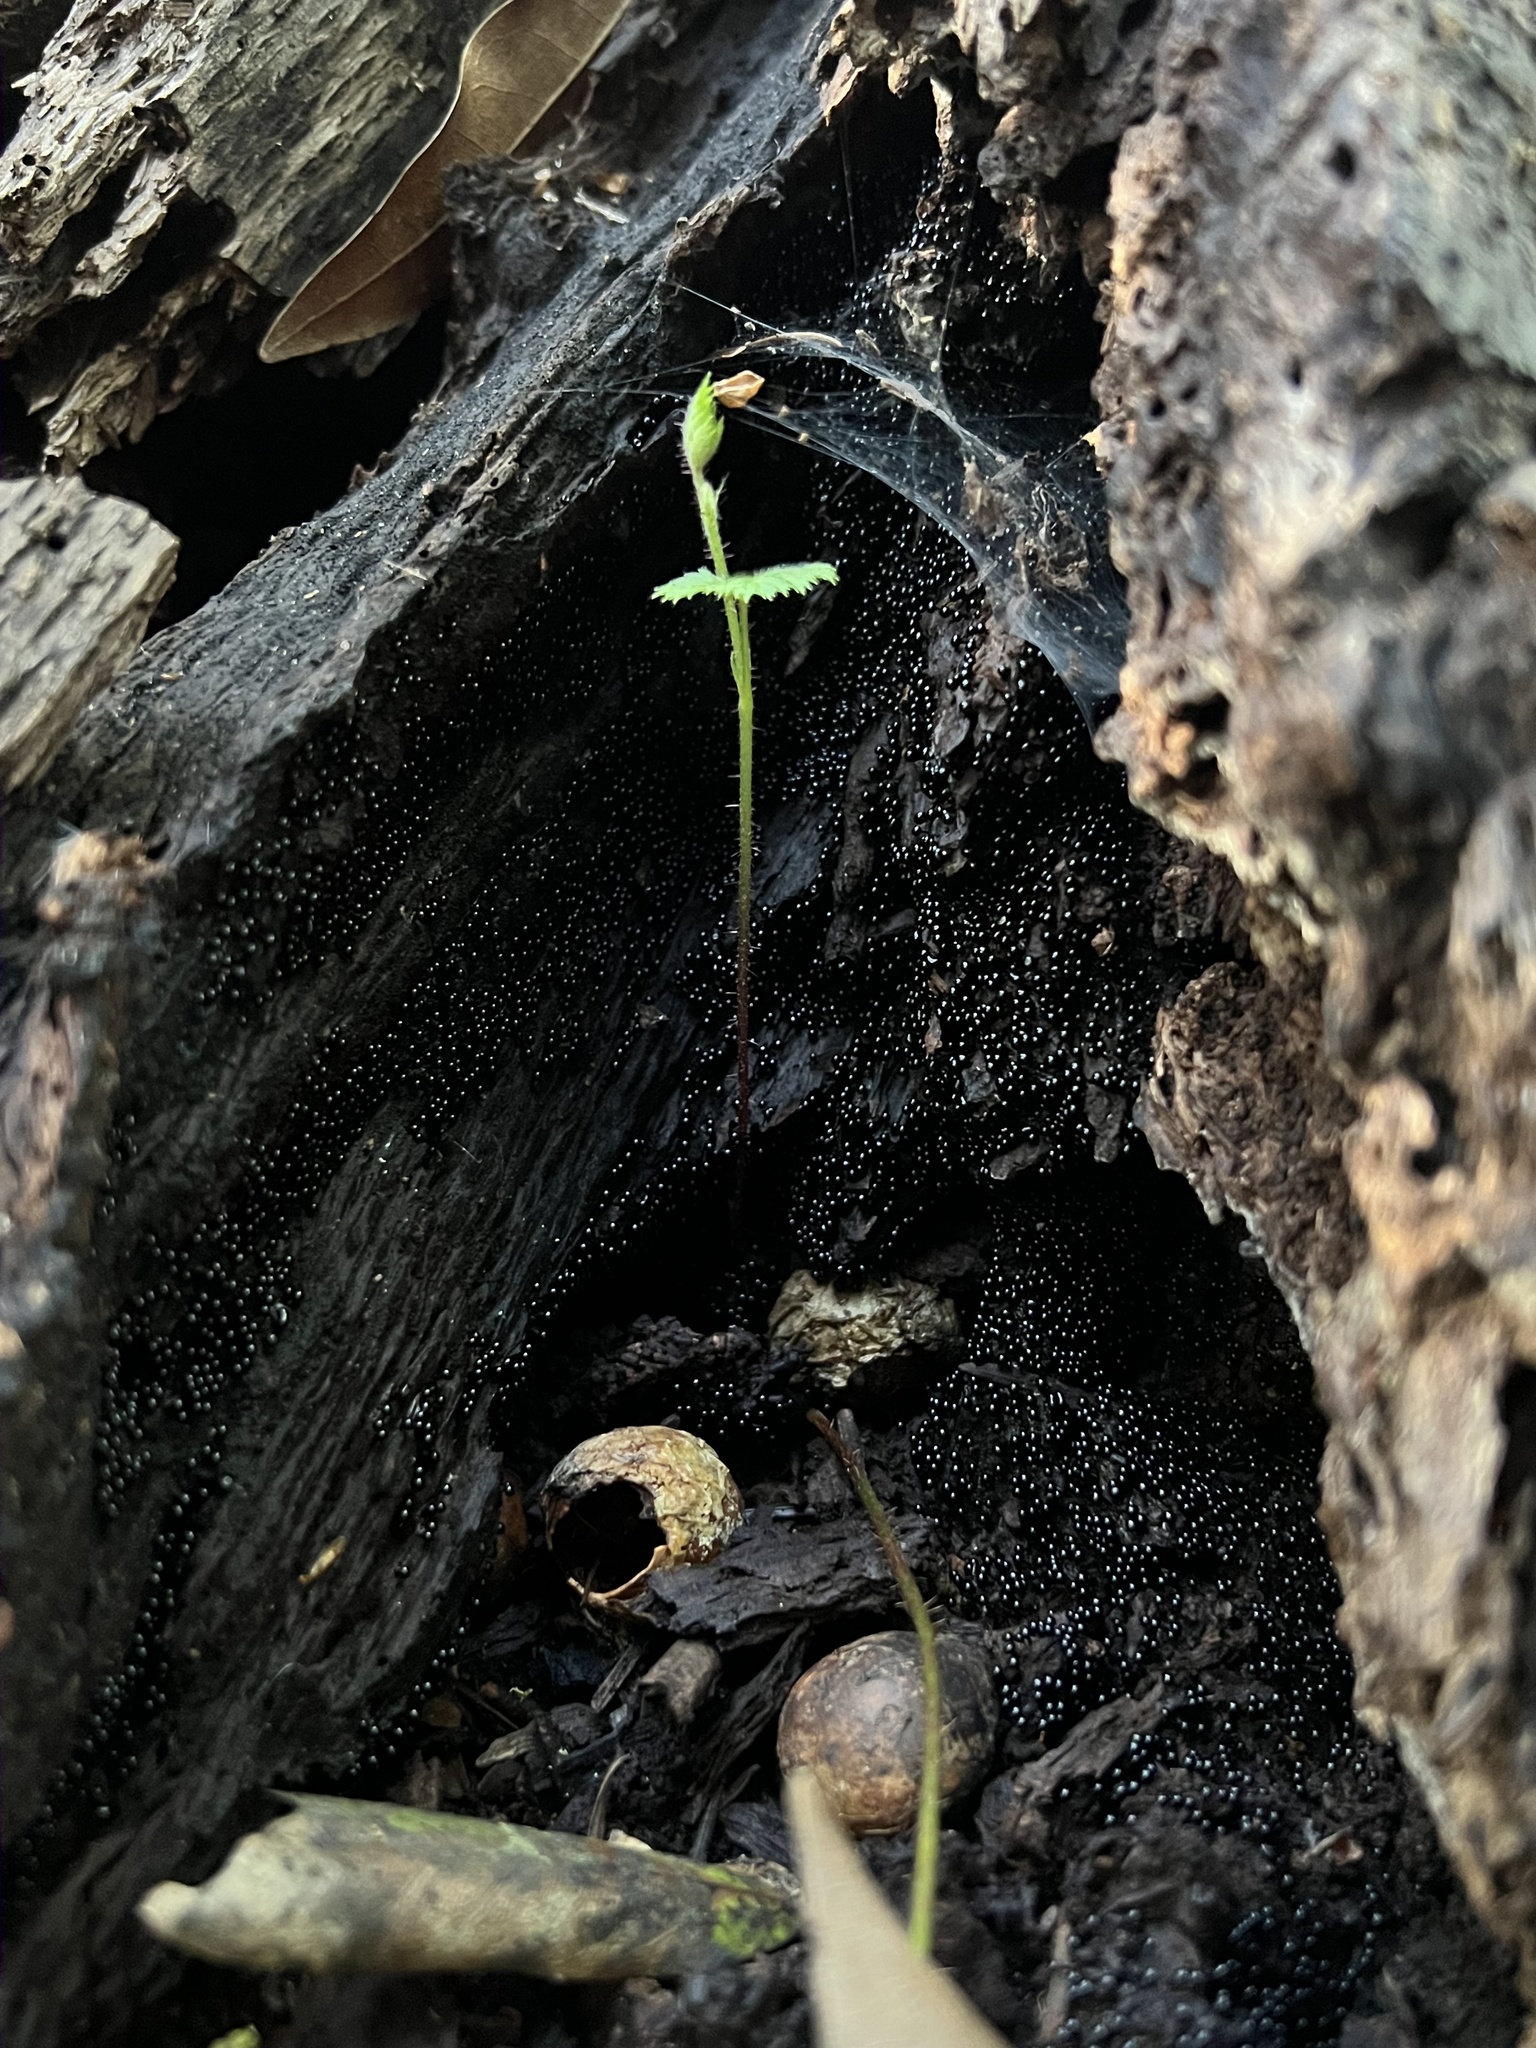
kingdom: Protozoa
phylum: Mycetozoa
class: Myxomycetes
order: Trichiales
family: Trichiaceae
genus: Metatrichia
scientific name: Metatrichia floriformis
